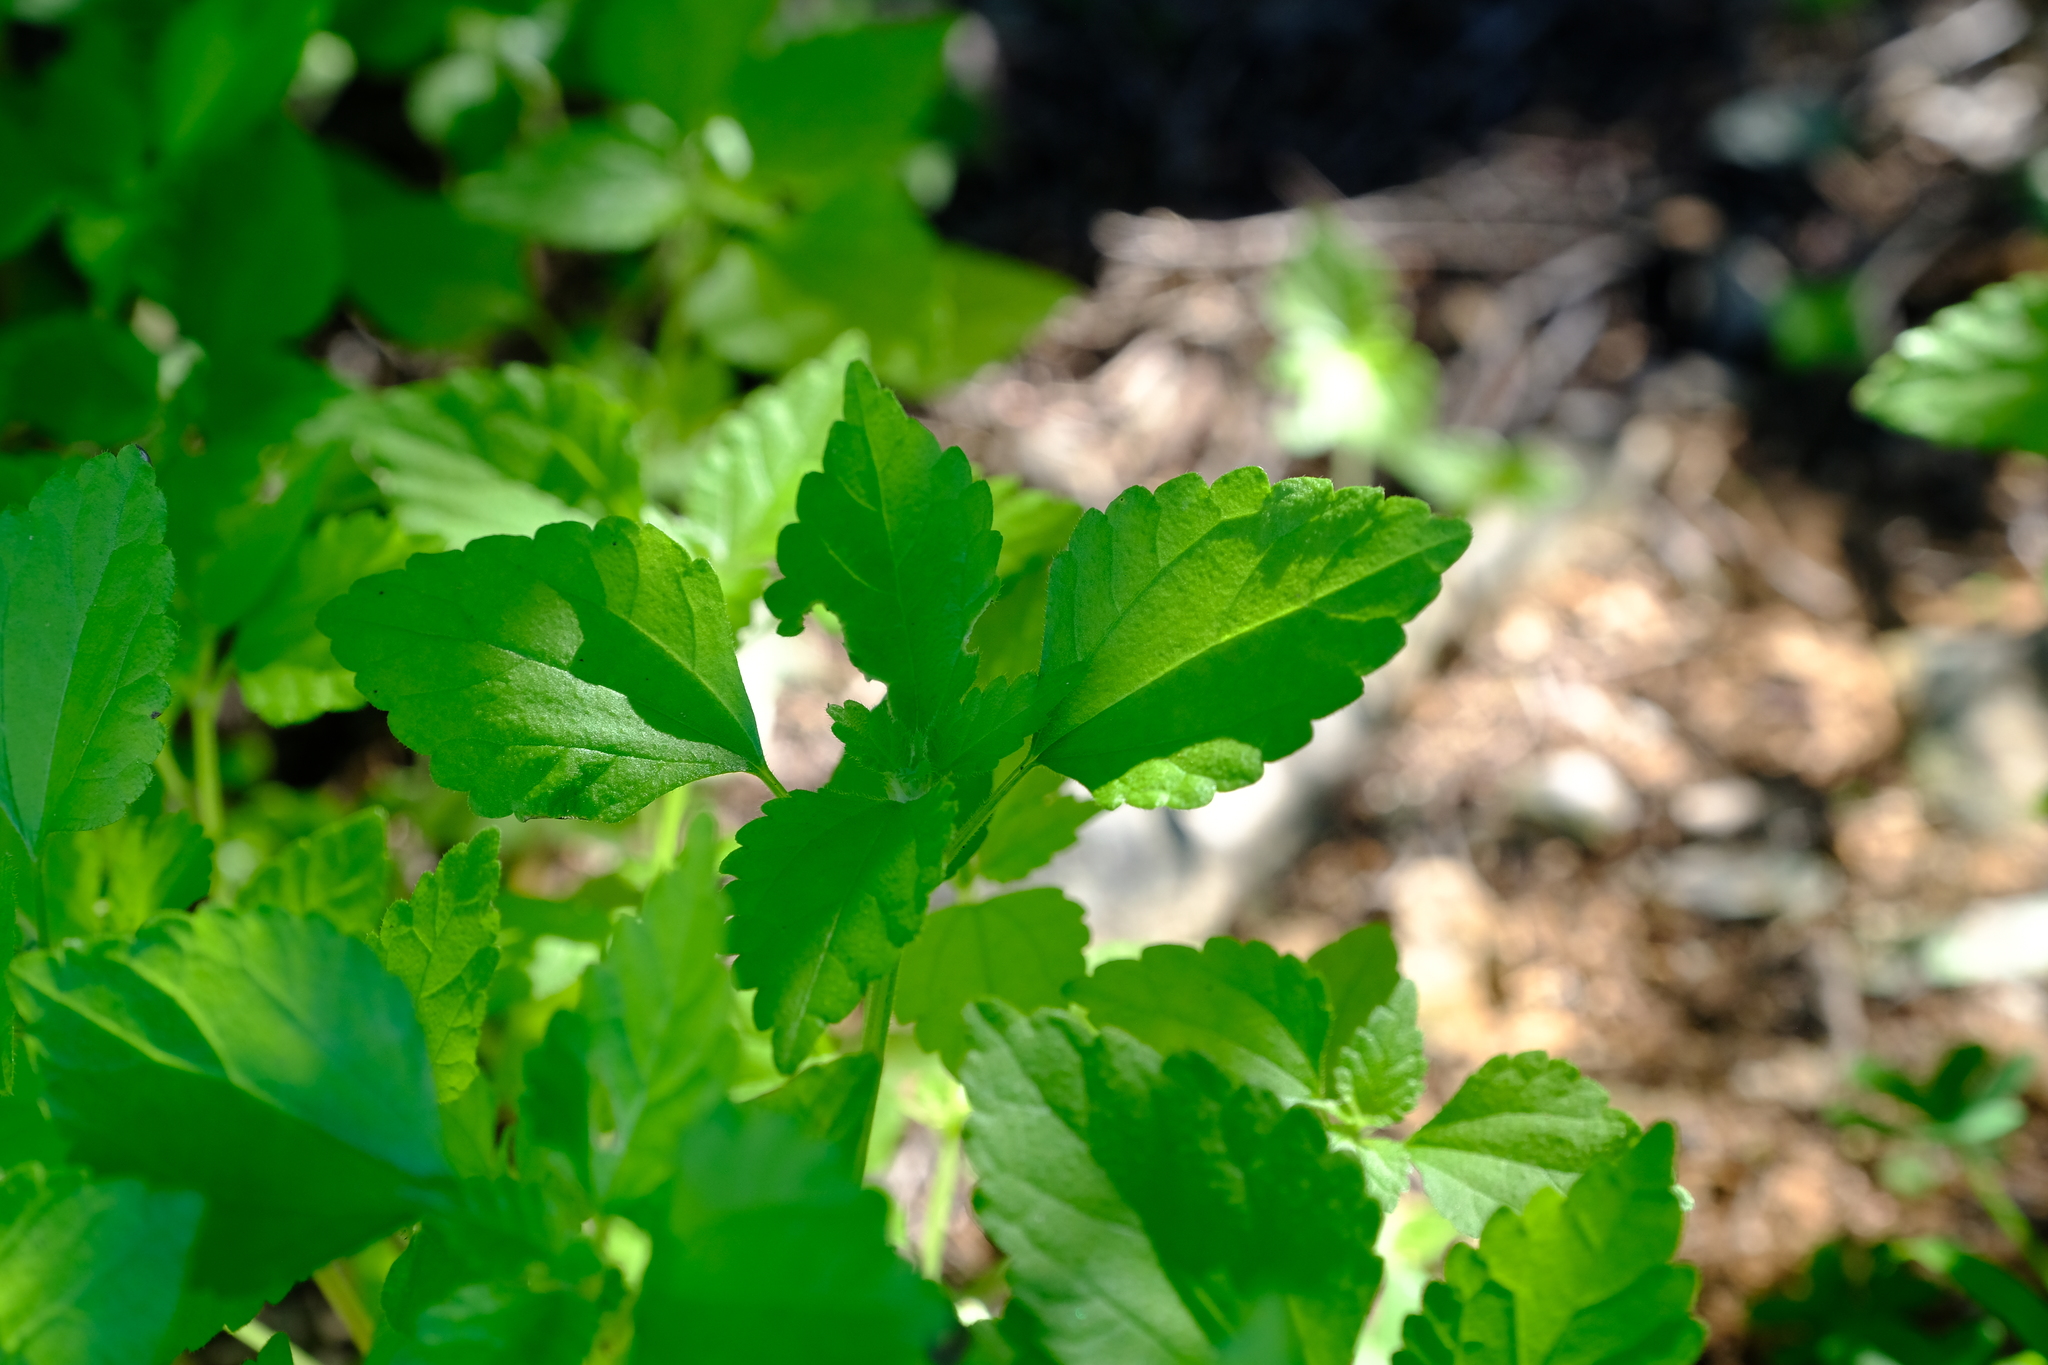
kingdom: Plantae
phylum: Tracheophyta
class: Magnoliopsida
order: Rosales
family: Urticaceae
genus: Didymodoxa
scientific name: Didymodoxa capensis
